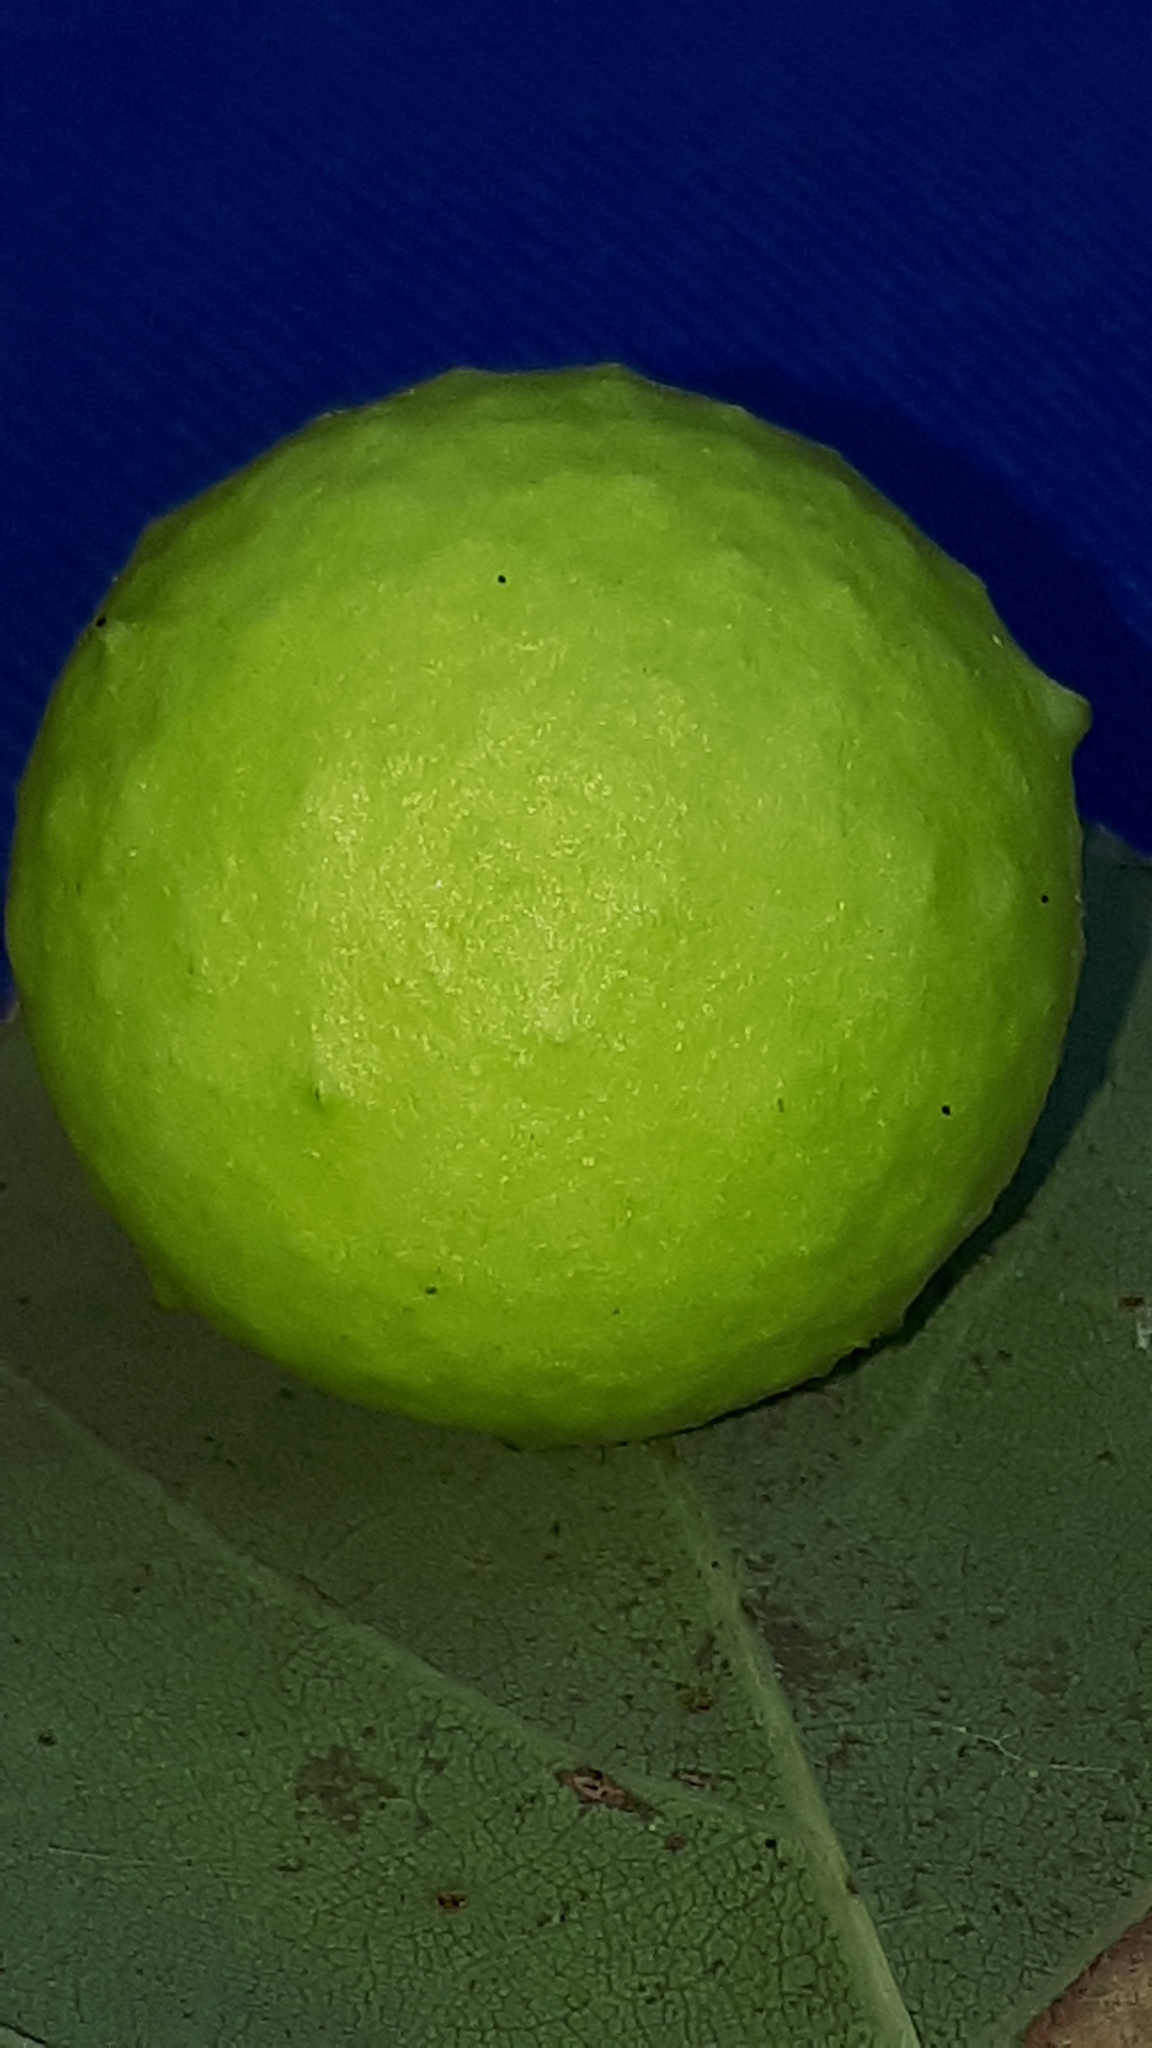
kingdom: Animalia
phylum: Arthropoda
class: Insecta
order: Hymenoptera
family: Cynipidae
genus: Cynips
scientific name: Cynips quercusfolii
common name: Cherry gall
